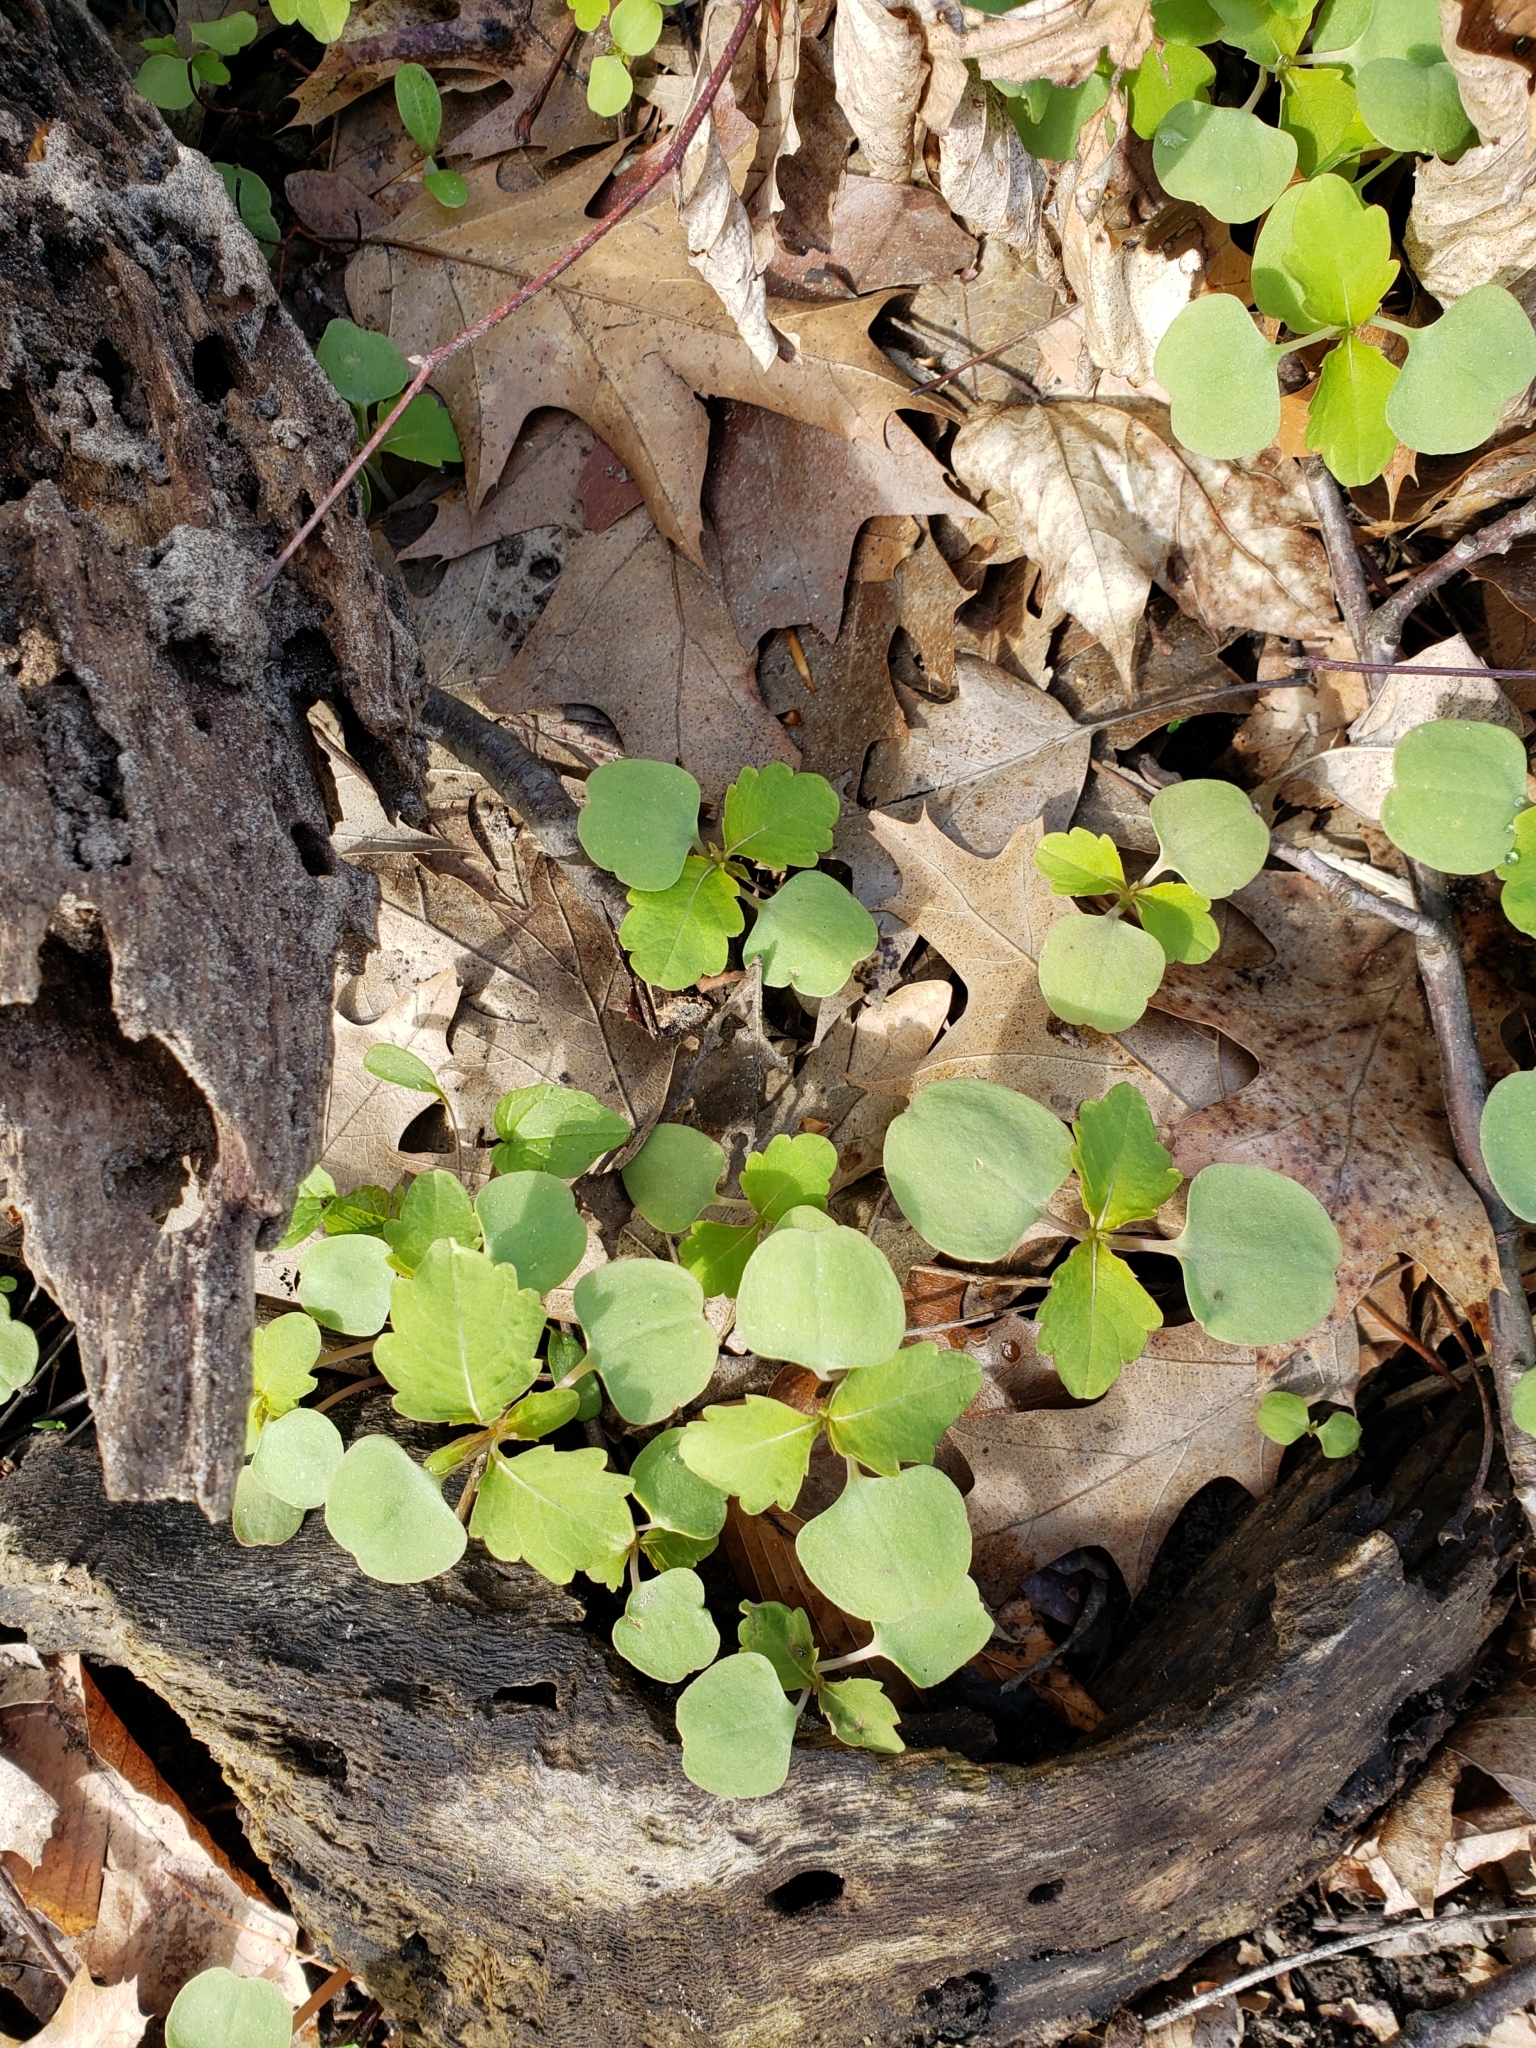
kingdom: Plantae
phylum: Tracheophyta
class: Magnoliopsida
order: Ericales
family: Balsaminaceae
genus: Impatiens
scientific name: Impatiens capensis
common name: Orange balsam
